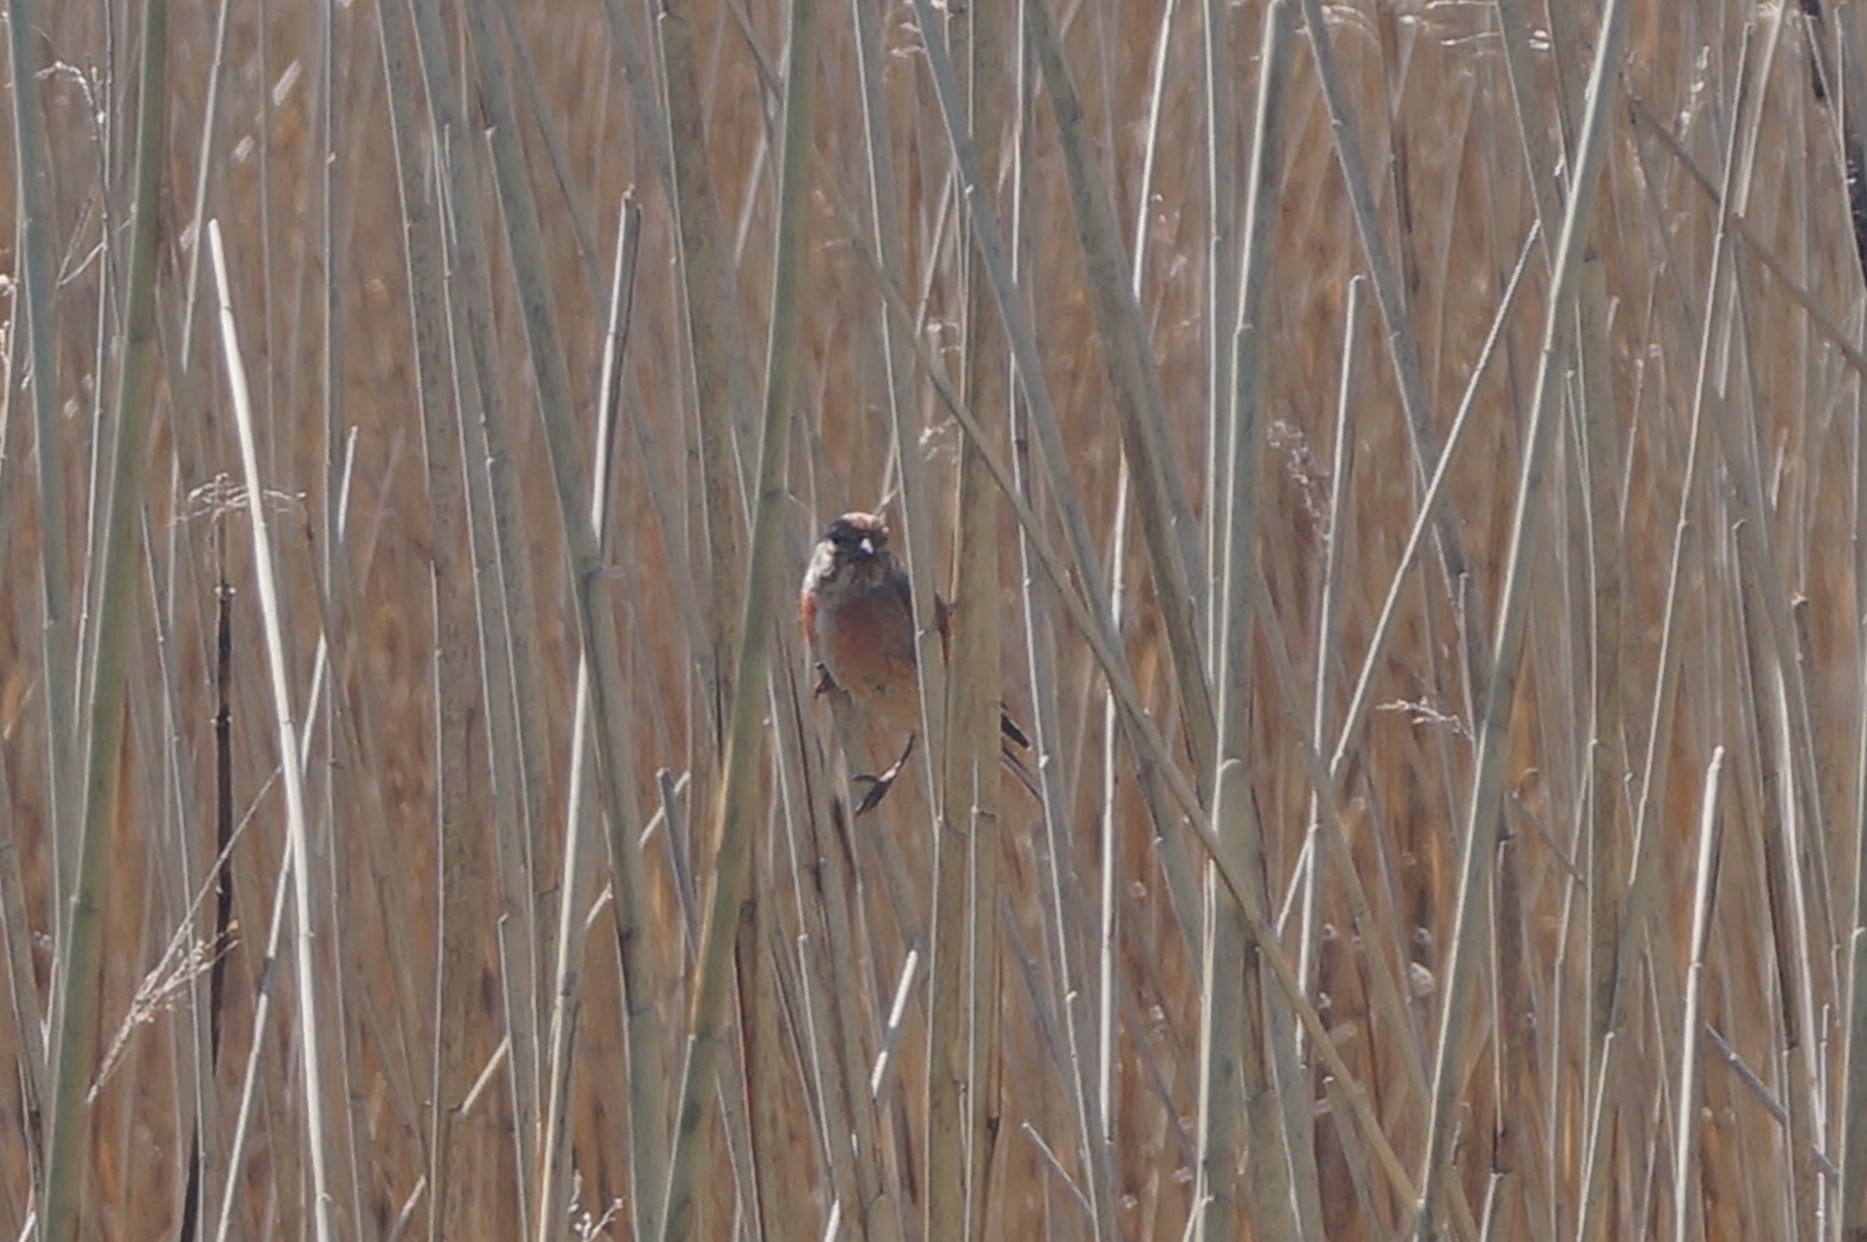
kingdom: Animalia
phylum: Chordata
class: Aves
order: Passeriformes
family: Fringillidae
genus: Linaria
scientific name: Linaria cannabina
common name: Common linnet
